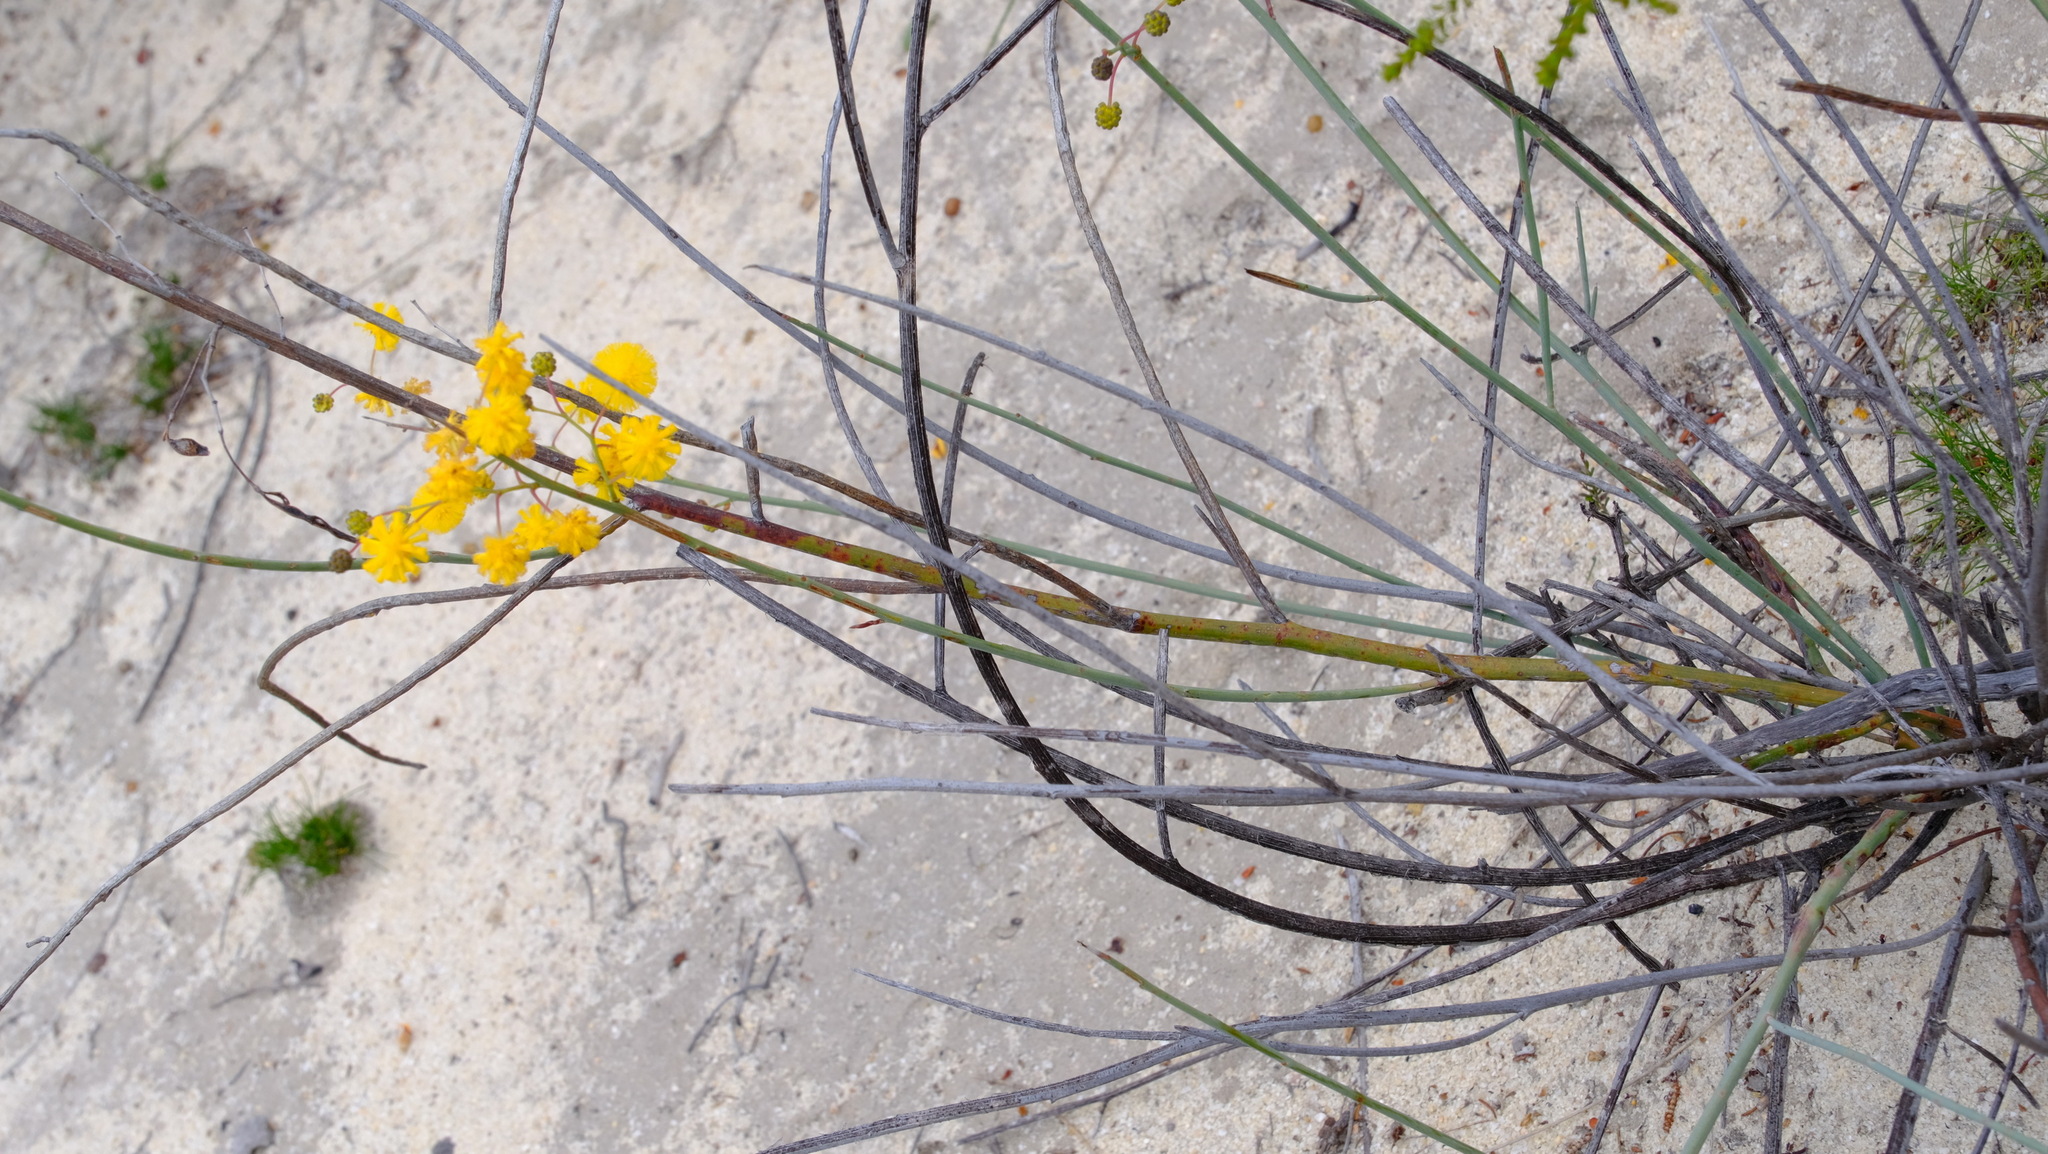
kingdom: Plantae
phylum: Tracheophyta
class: Magnoliopsida
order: Fabales
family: Fabaceae
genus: Acacia
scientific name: Acacia restiacea
